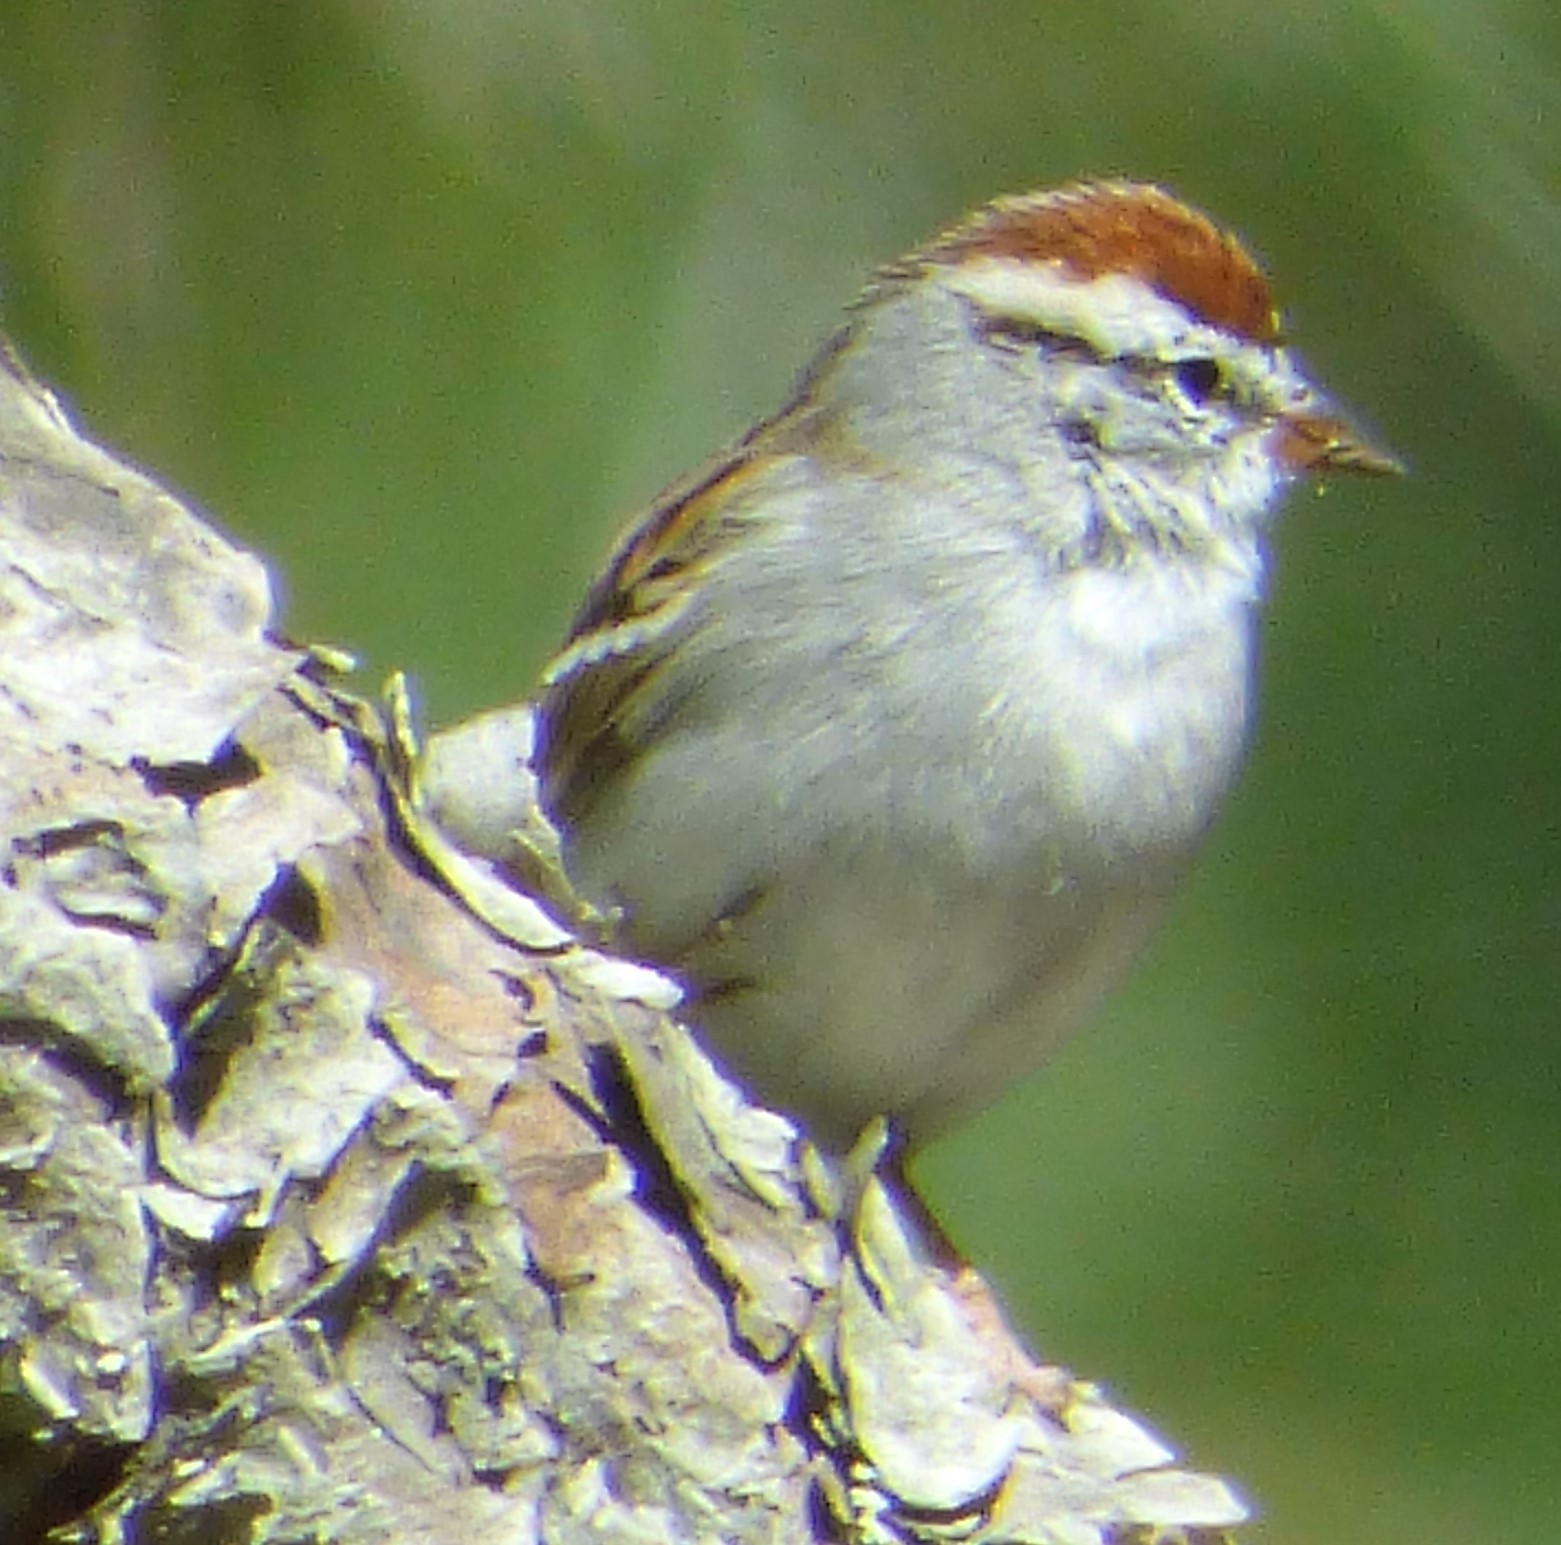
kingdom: Animalia
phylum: Chordata
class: Aves
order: Passeriformes
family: Passerellidae
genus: Spizella
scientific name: Spizella passerina
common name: Chipping sparrow
